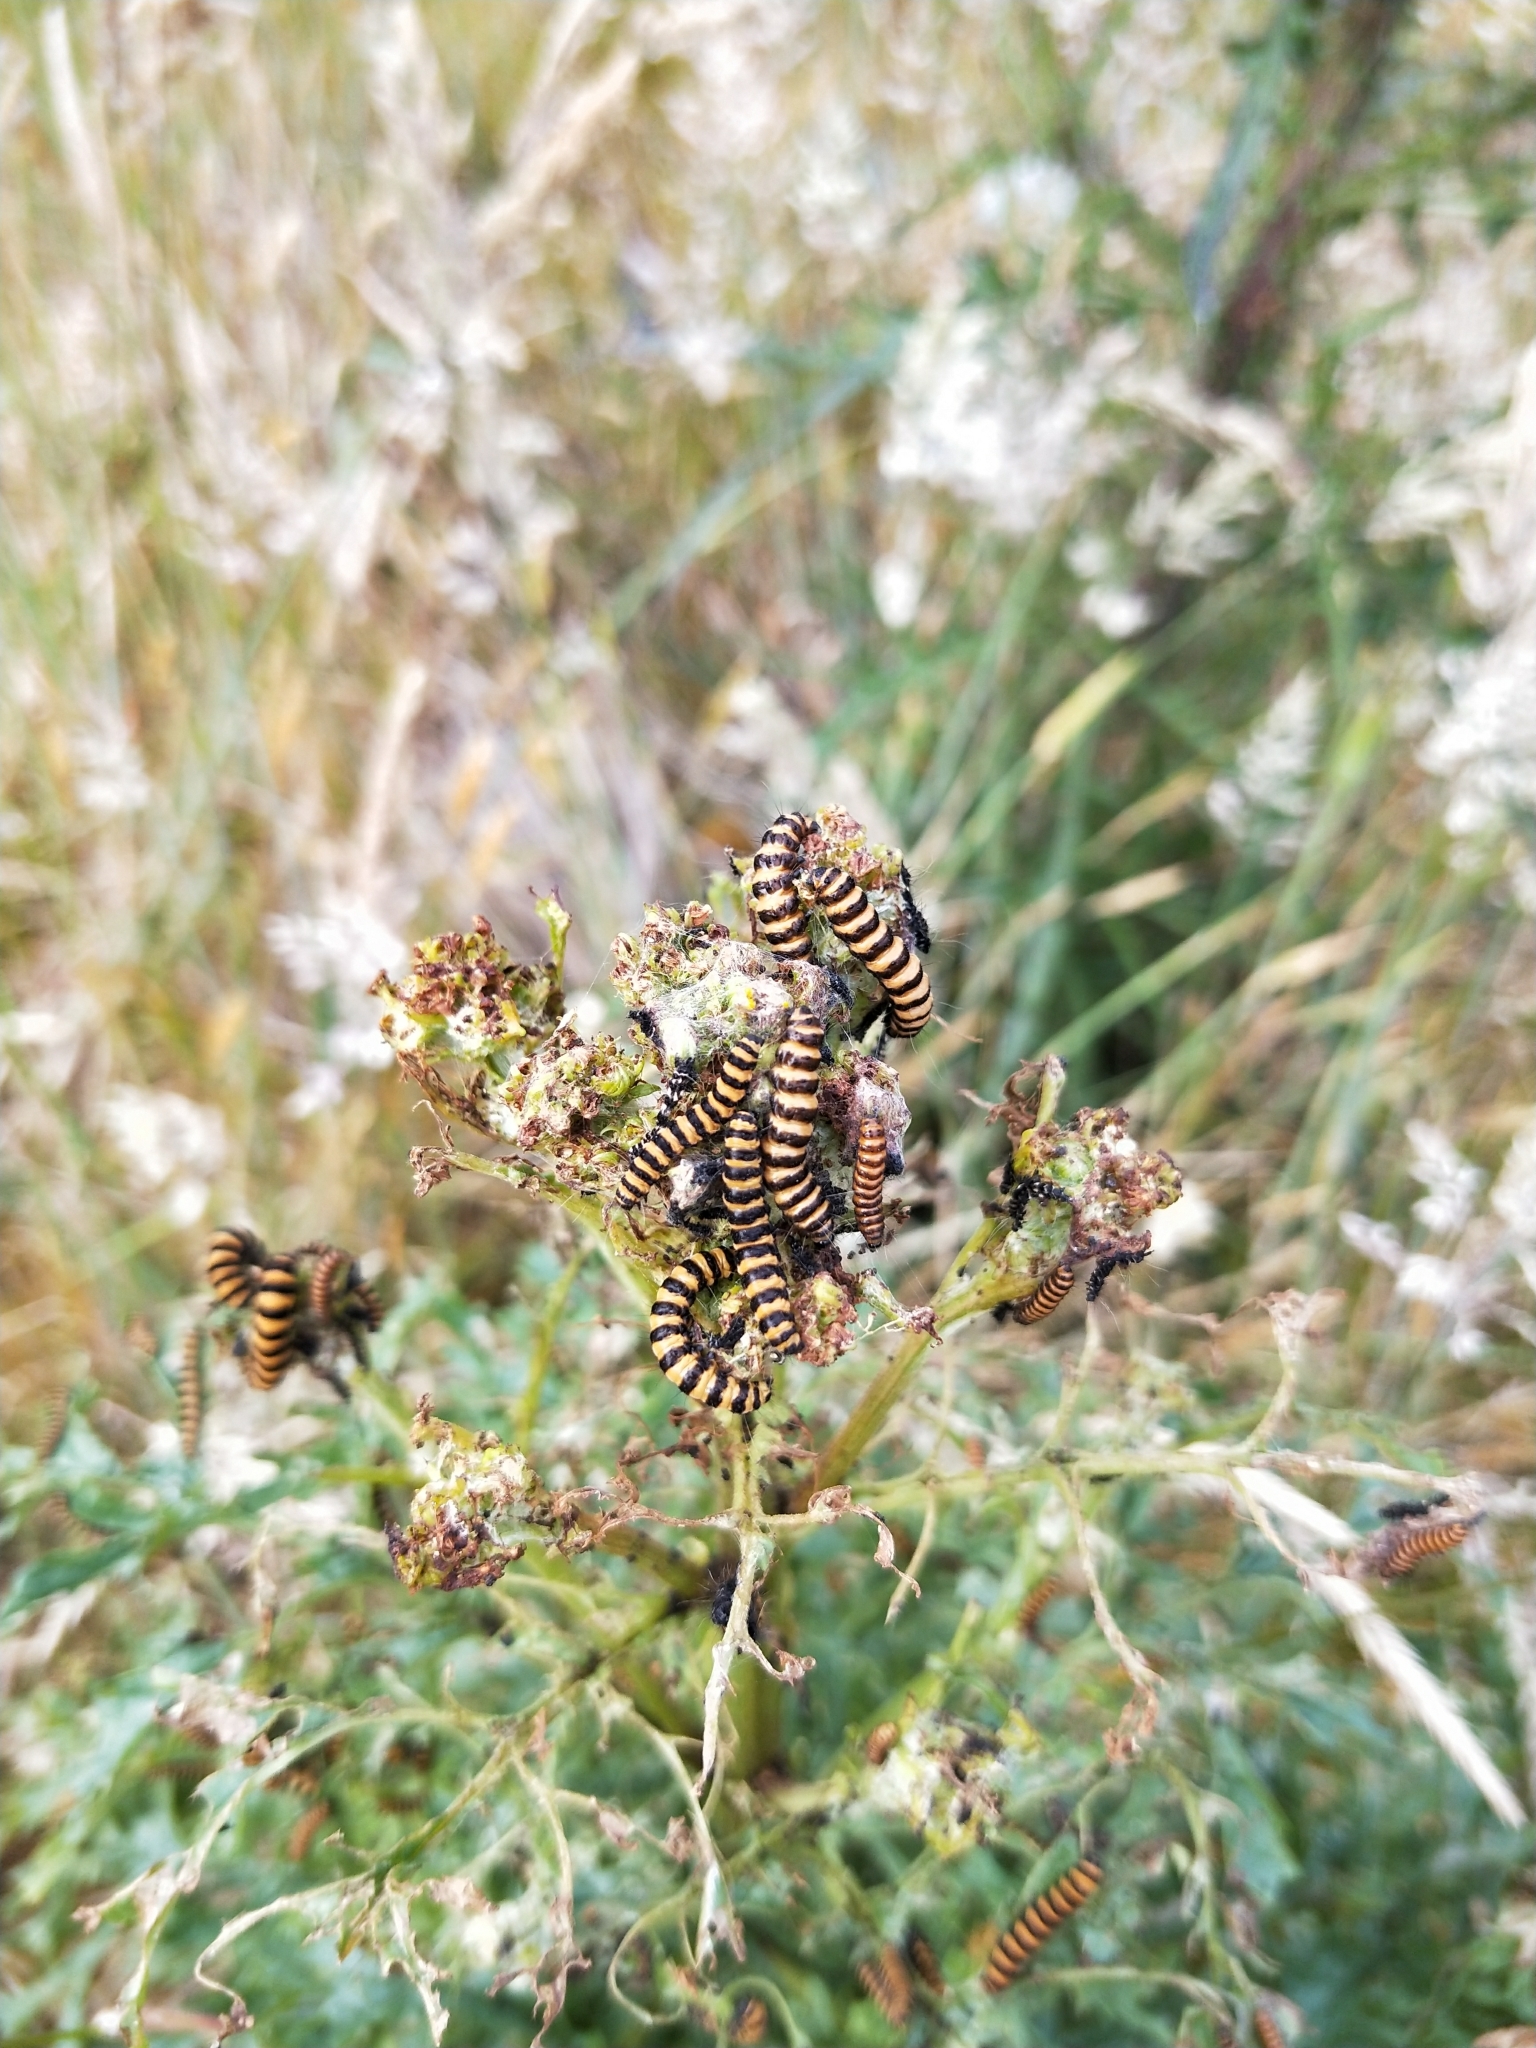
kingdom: Animalia
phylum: Arthropoda
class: Insecta
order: Lepidoptera
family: Erebidae
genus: Tyria
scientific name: Tyria jacobaeae
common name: Cinnabar
